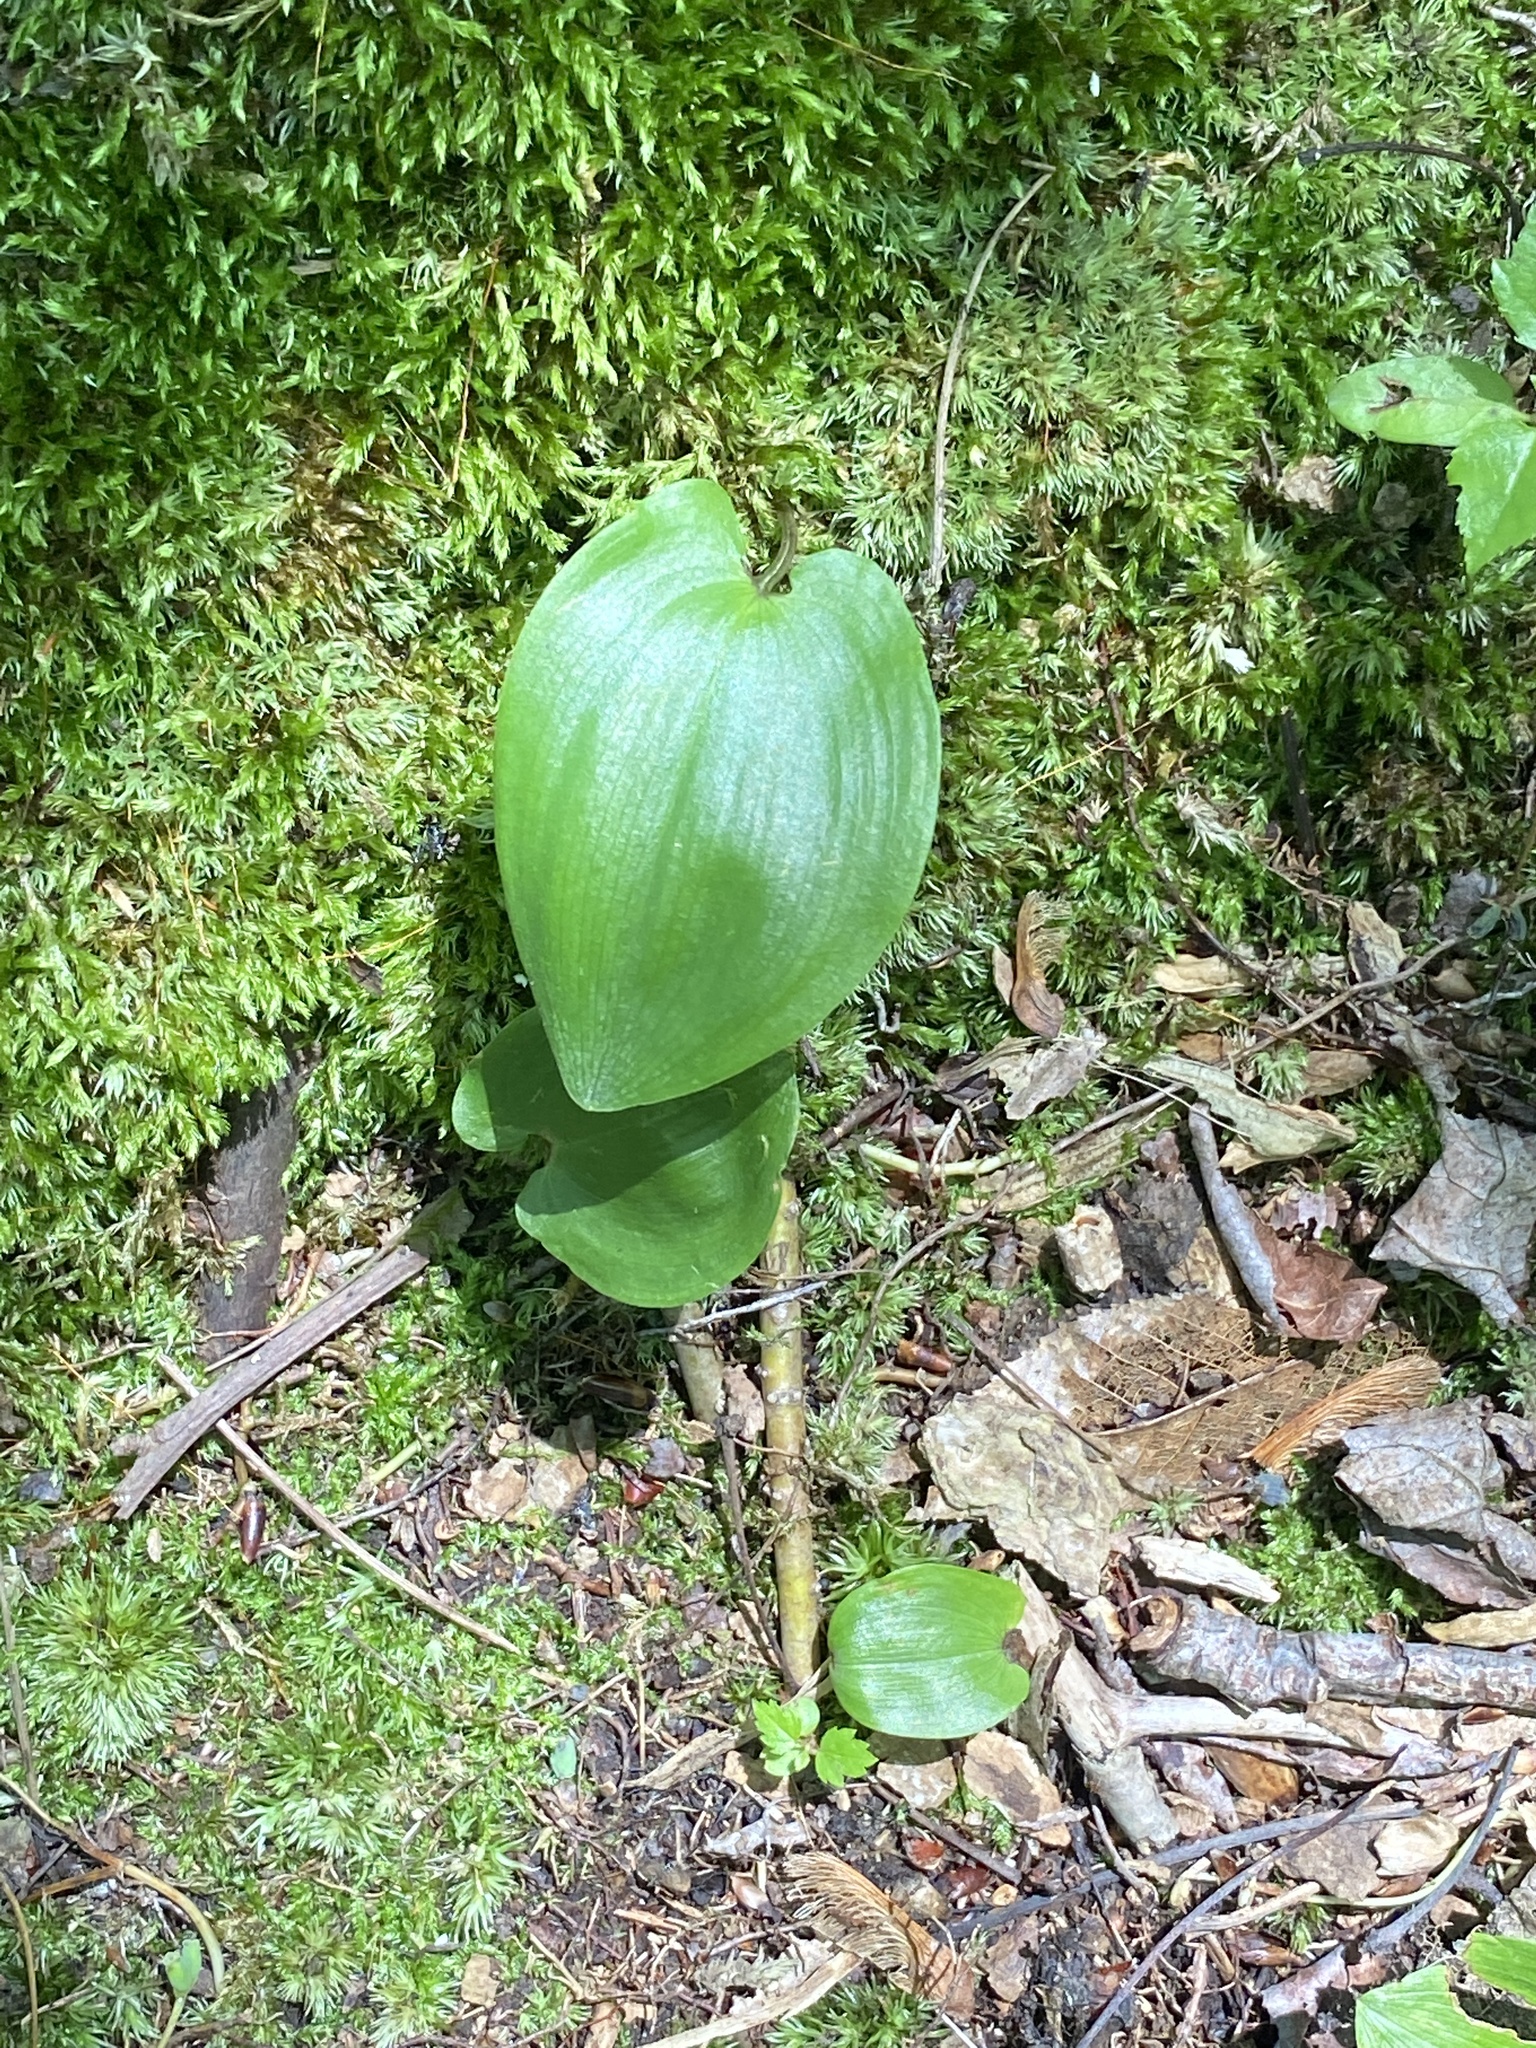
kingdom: Plantae
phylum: Tracheophyta
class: Liliopsida
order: Asparagales
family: Asparagaceae
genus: Maianthemum
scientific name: Maianthemum canadense
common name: False lily-of-the-valley
